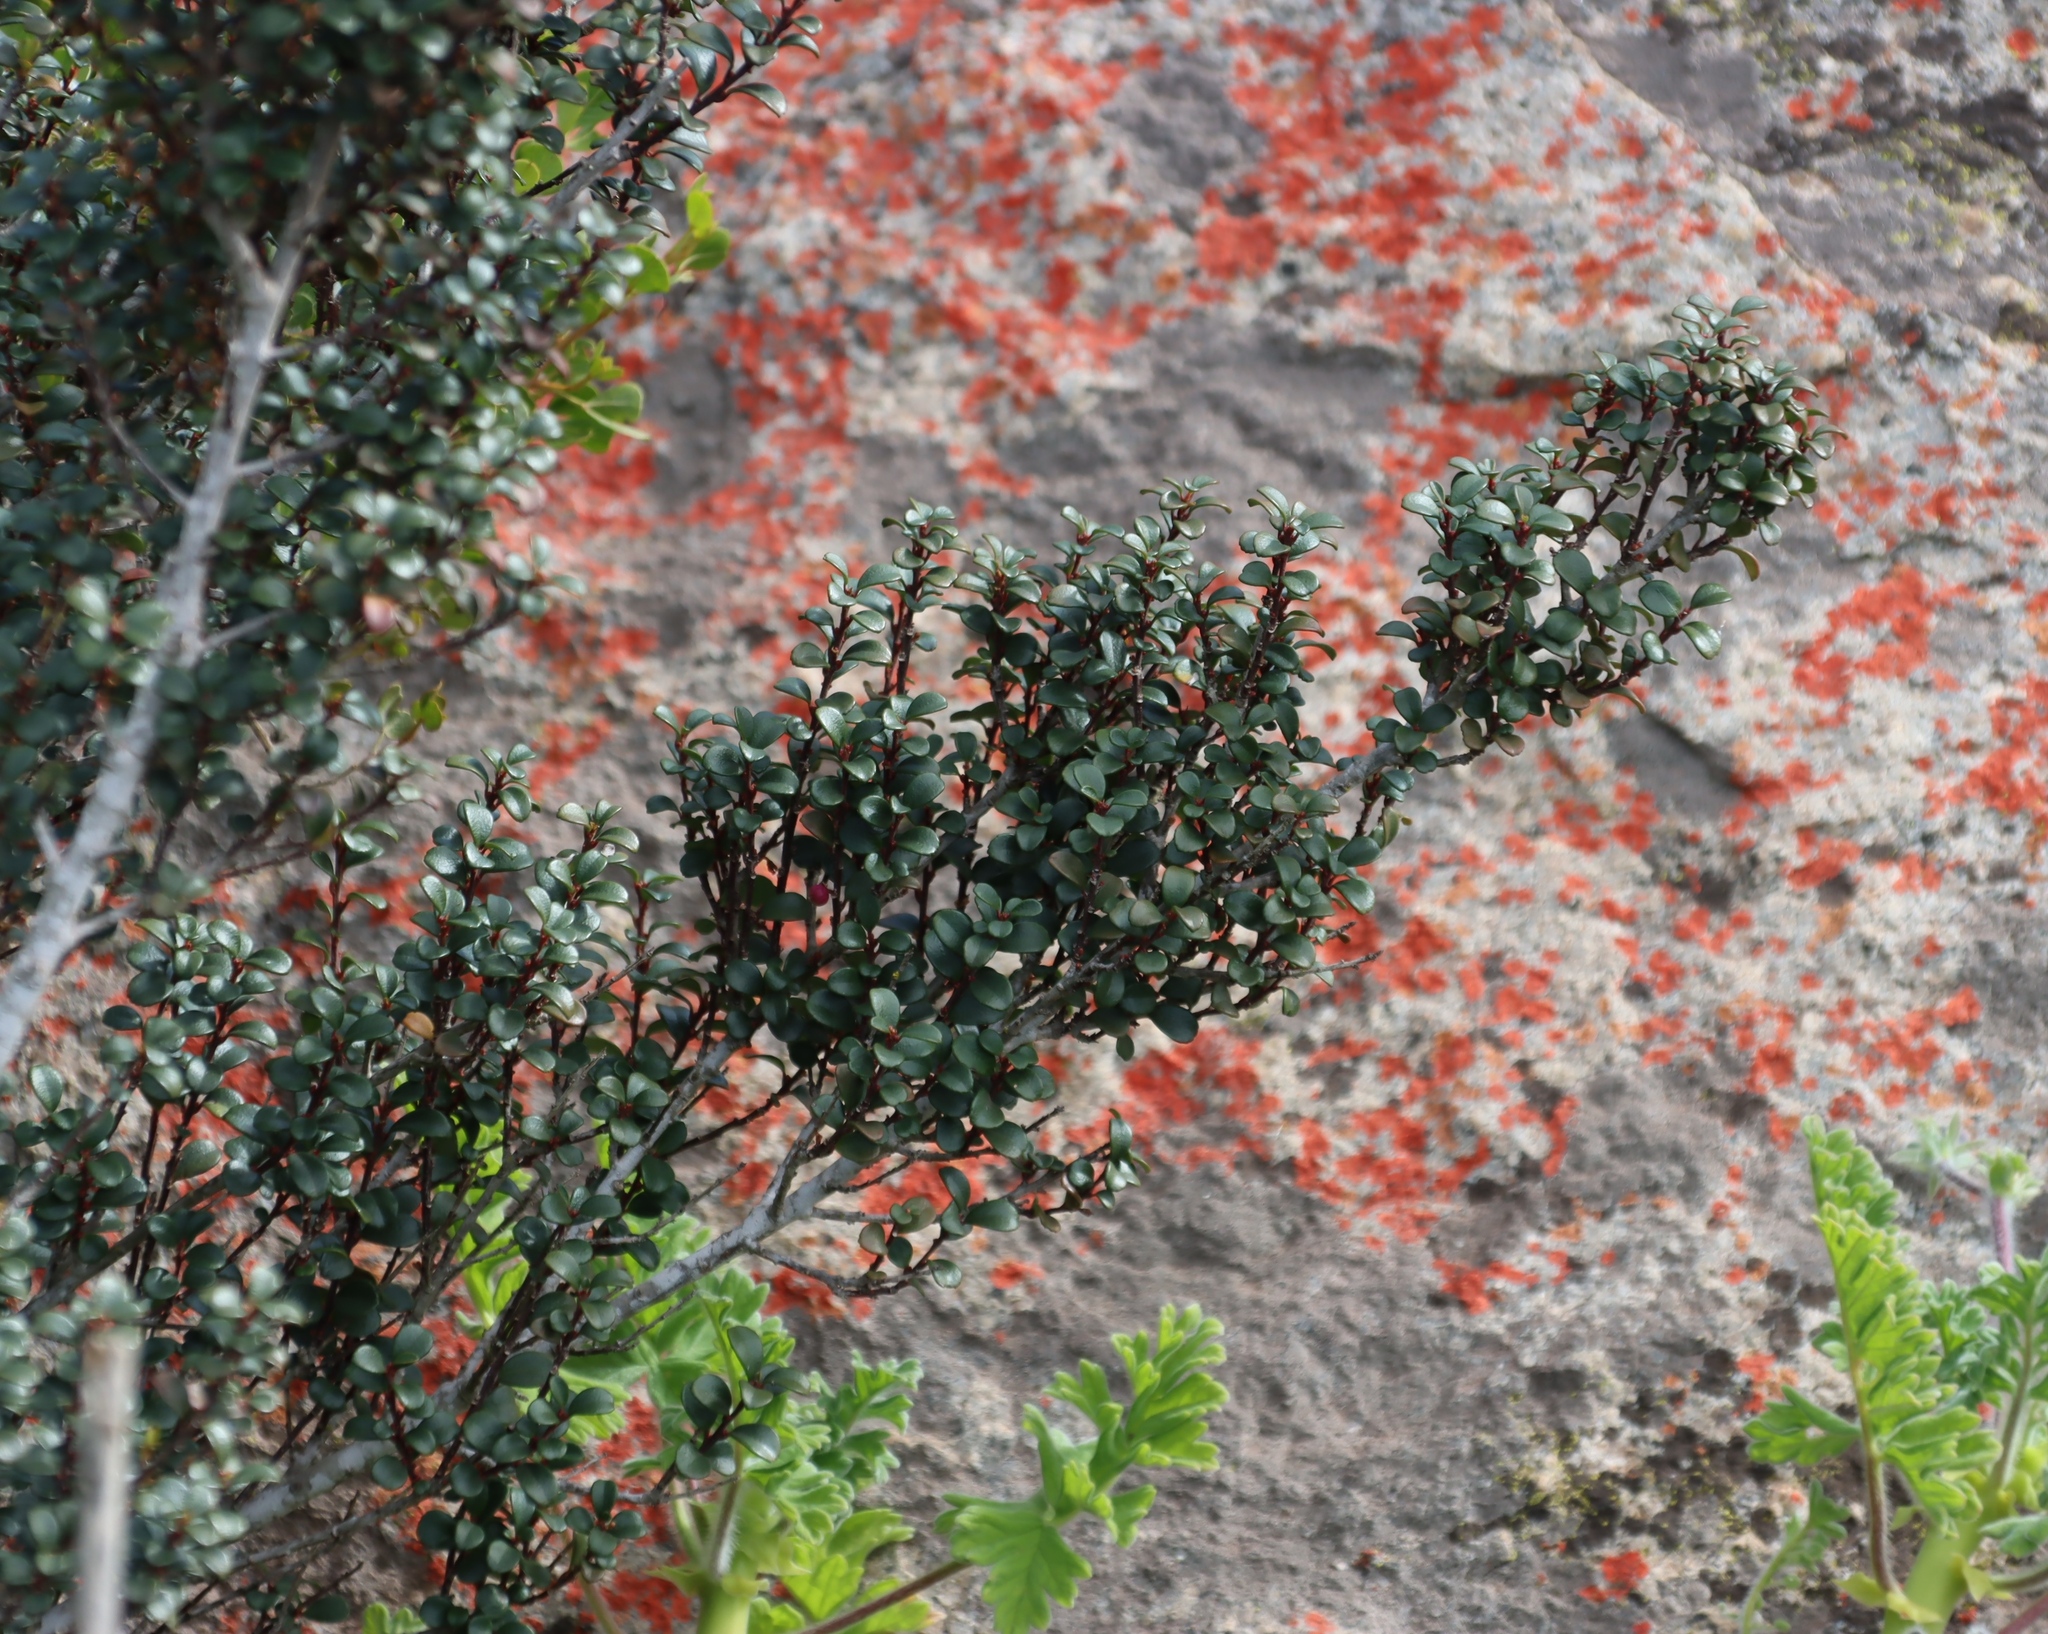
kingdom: Plantae
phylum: Tracheophyta
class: Magnoliopsida
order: Ericales
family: Primulaceae
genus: Myrsine
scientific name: Myrsine africana
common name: African-boxwood
